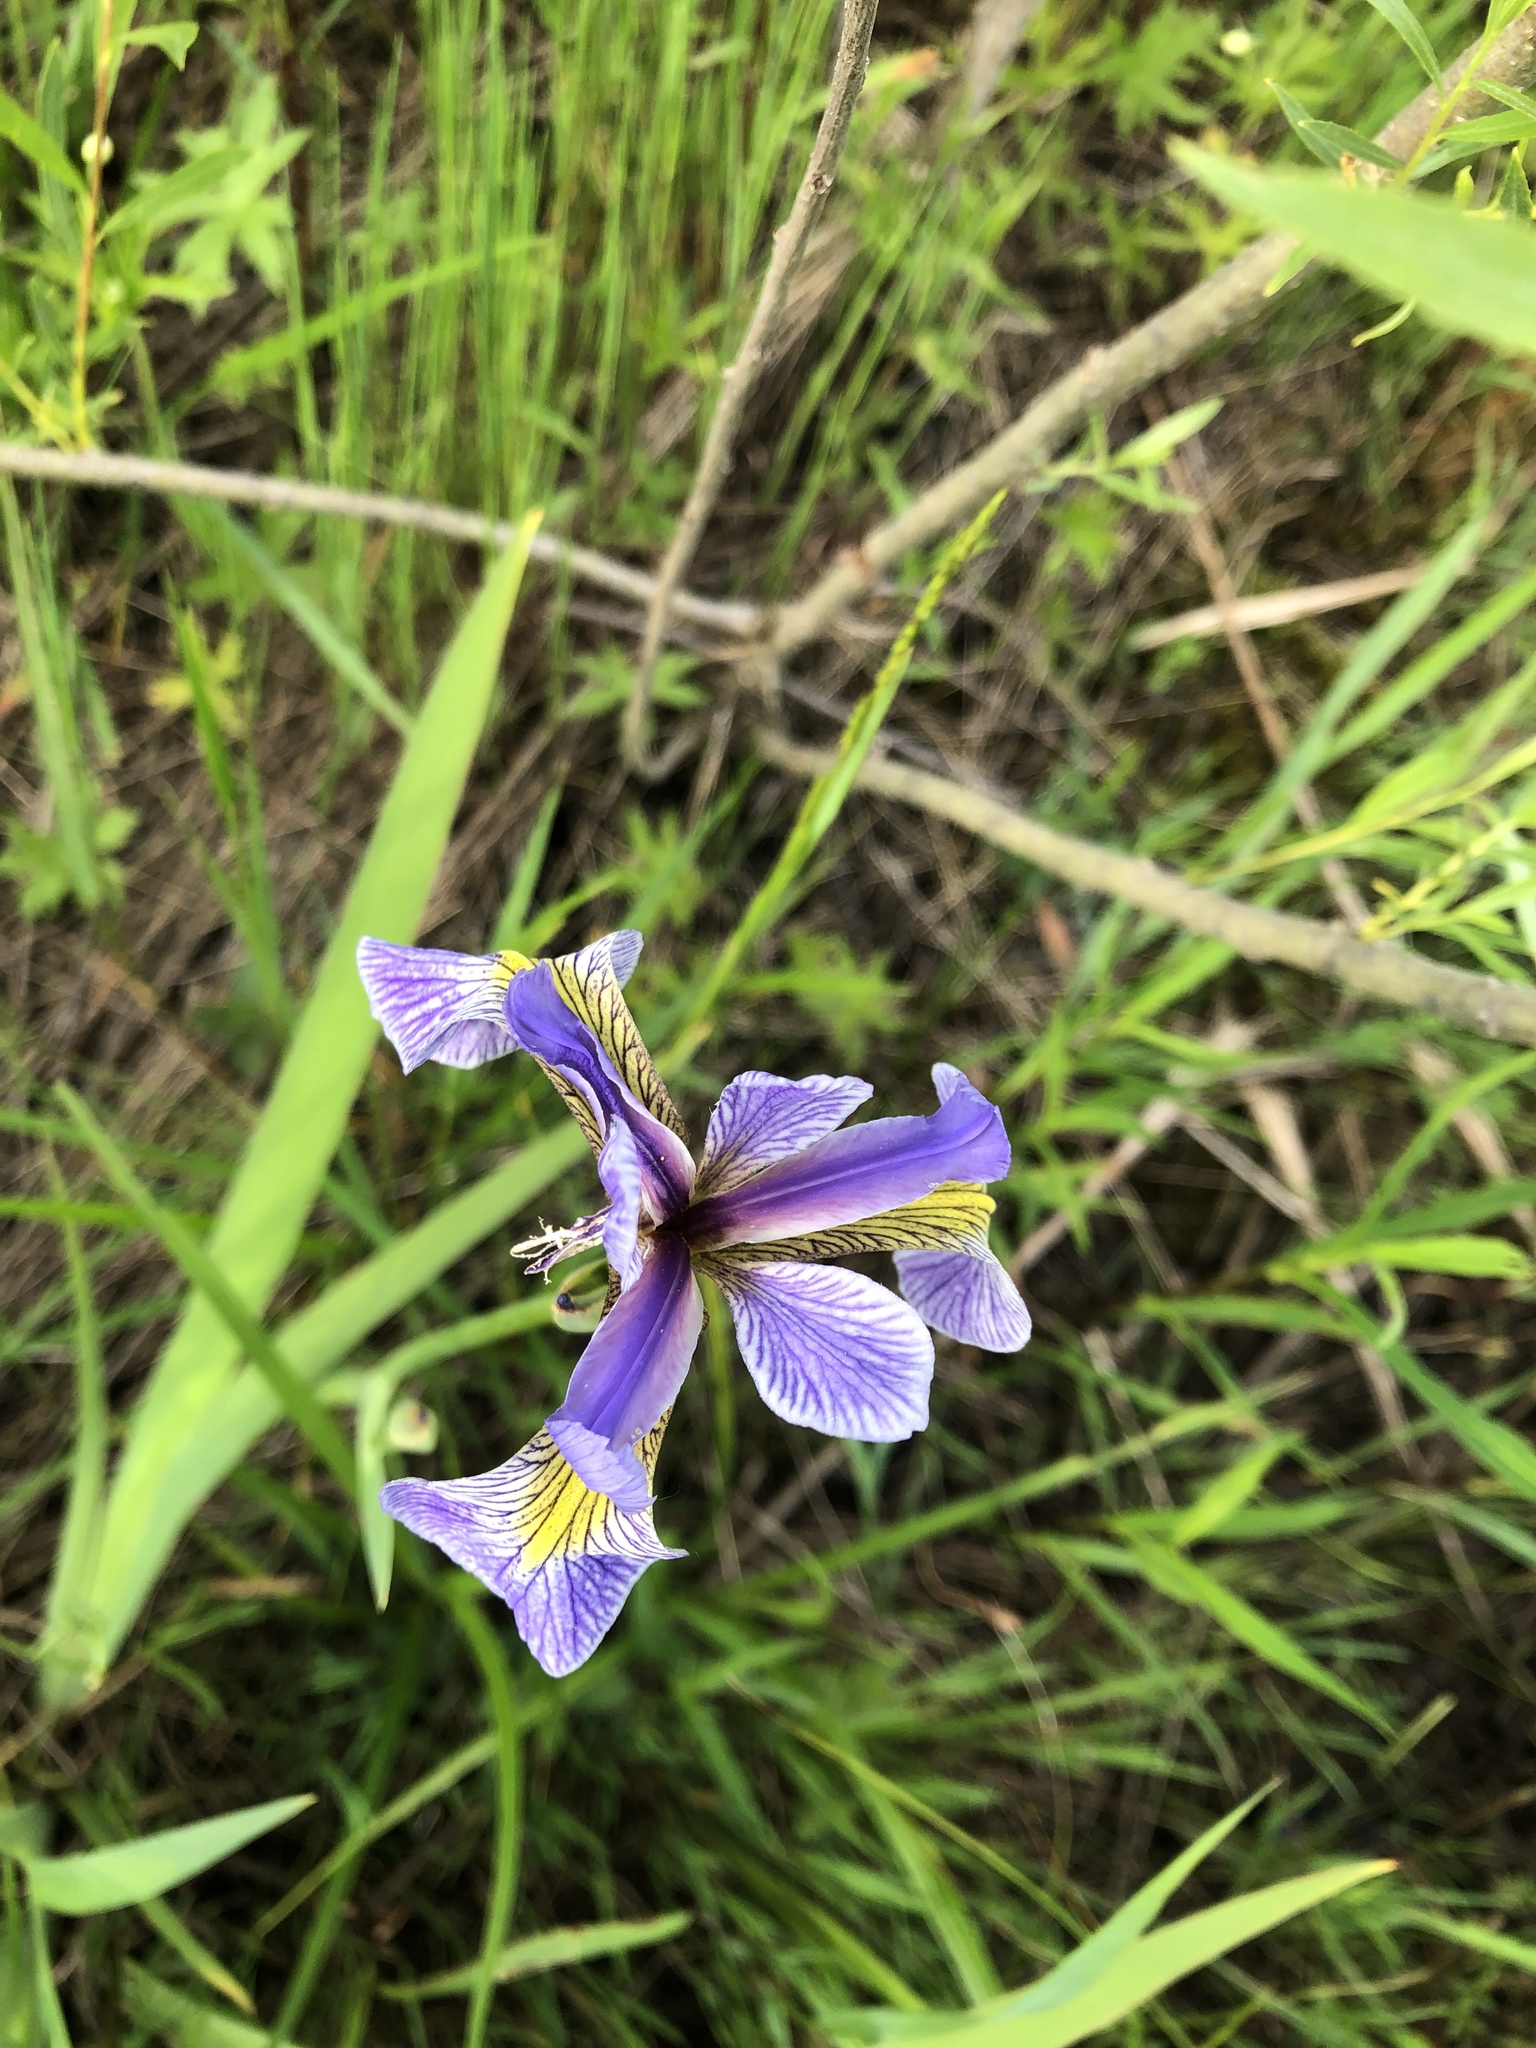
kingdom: Plantae
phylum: Tracheophyta
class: Liliopsida
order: Asparagales
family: Iridaceae
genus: Iris
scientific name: Iris versicolor
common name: Purple iris
